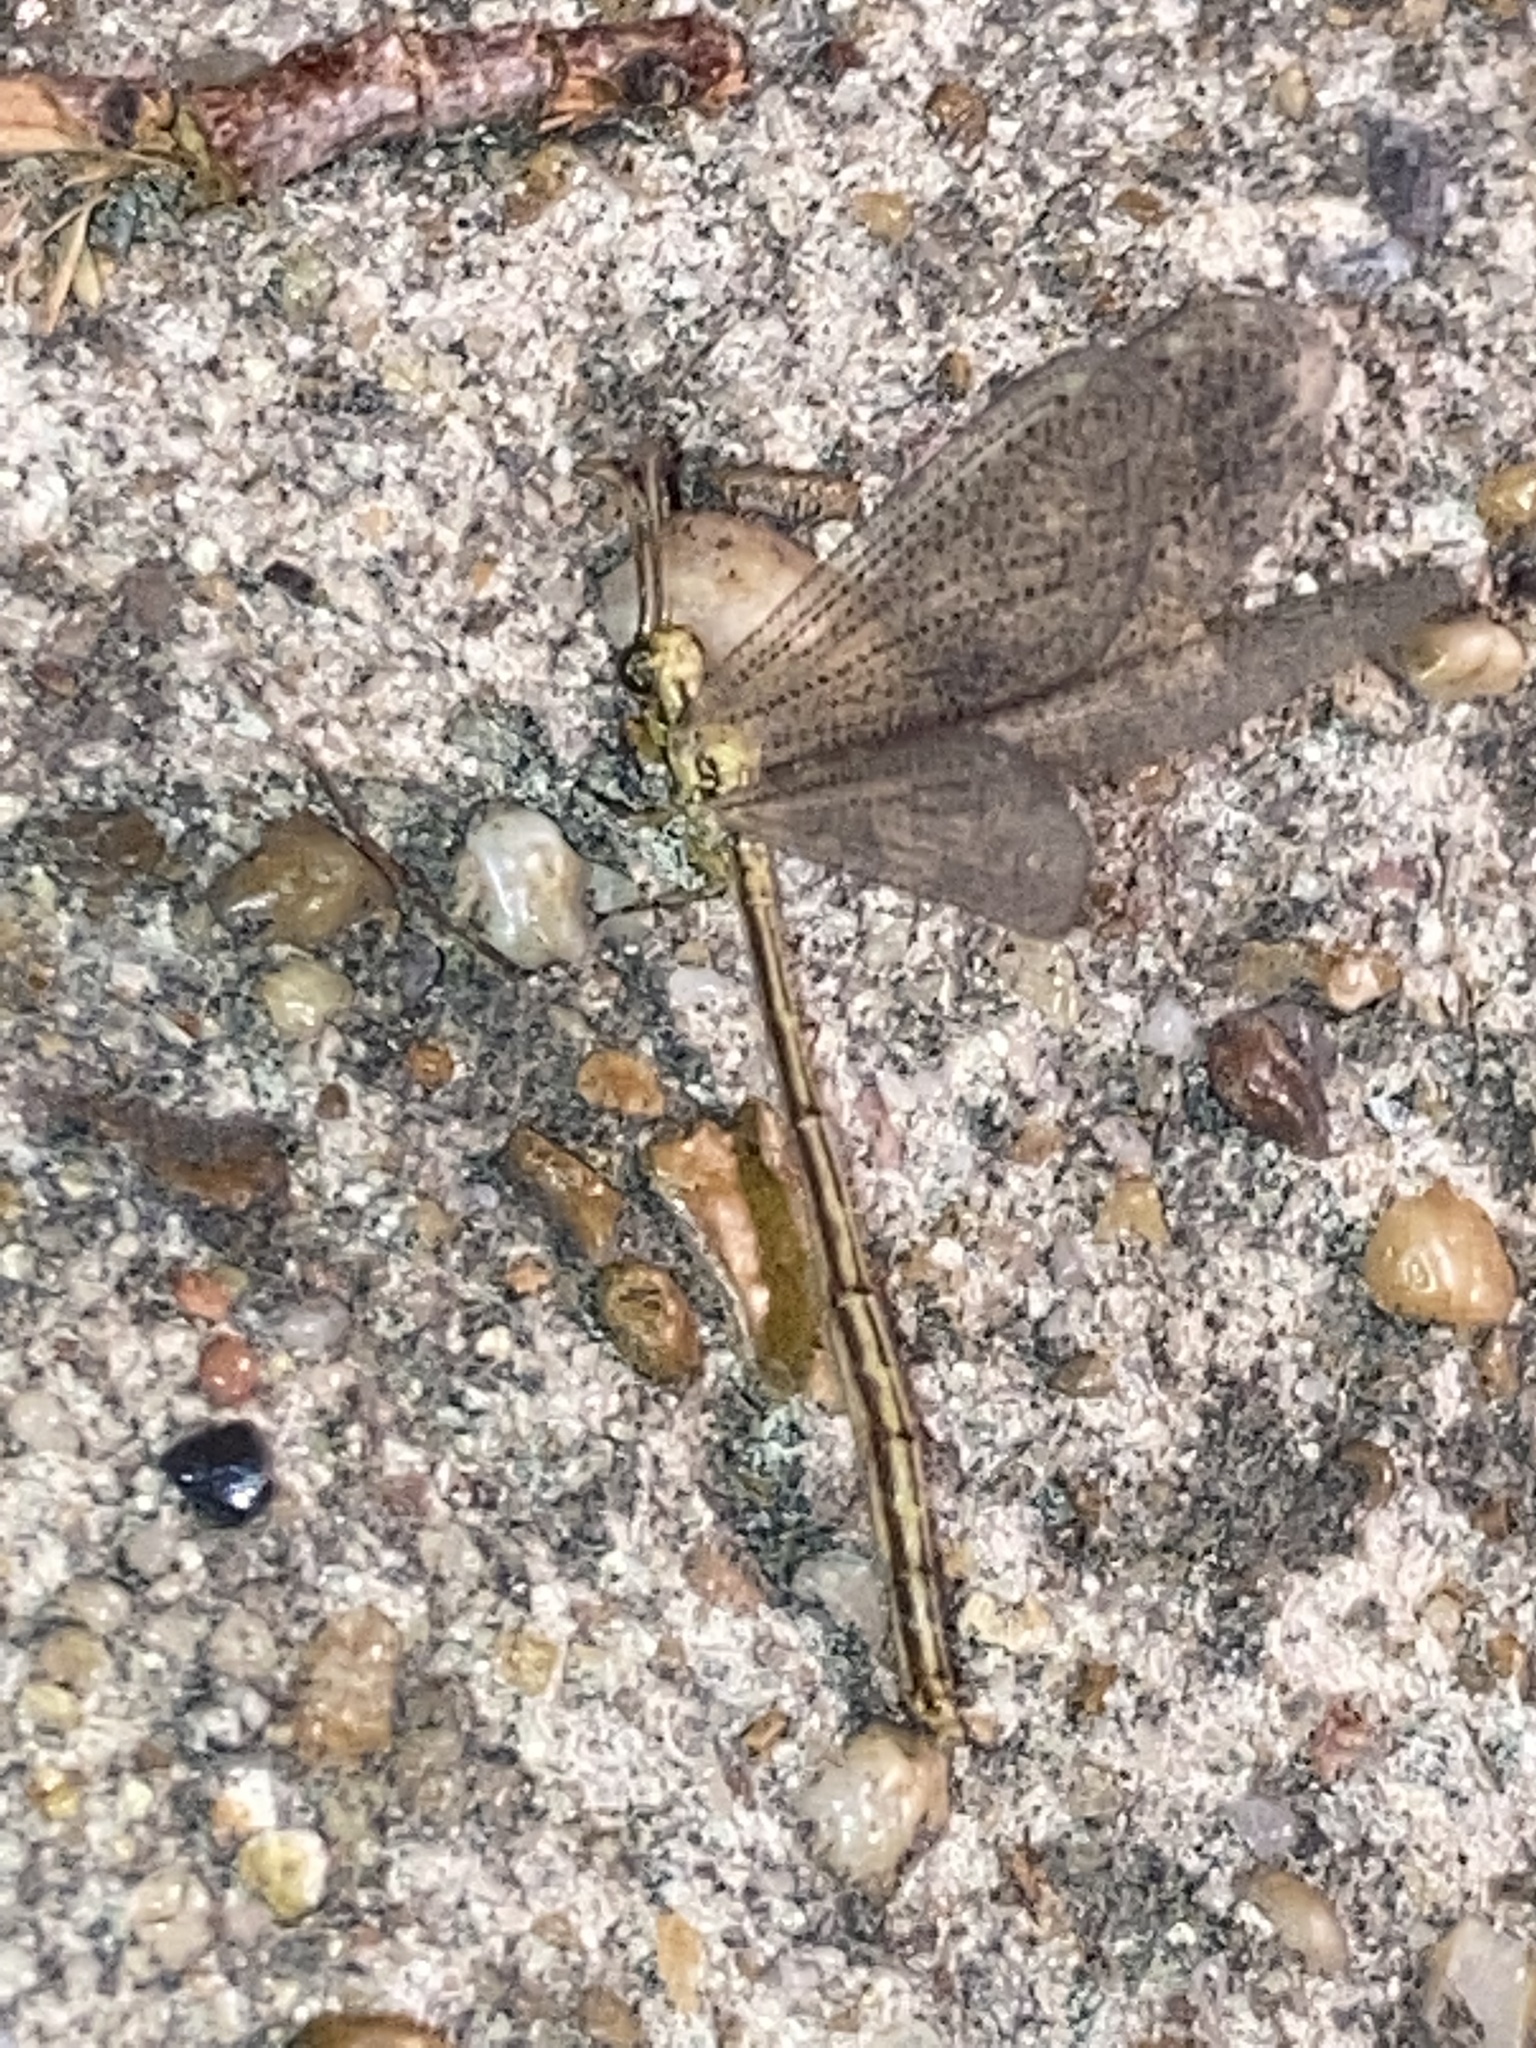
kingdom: Animalia
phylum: Arthropoda
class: Insecta
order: Neuroptera
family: Myrmeleontidae
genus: Brachynemurus
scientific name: Brachynemurus abdominalis
